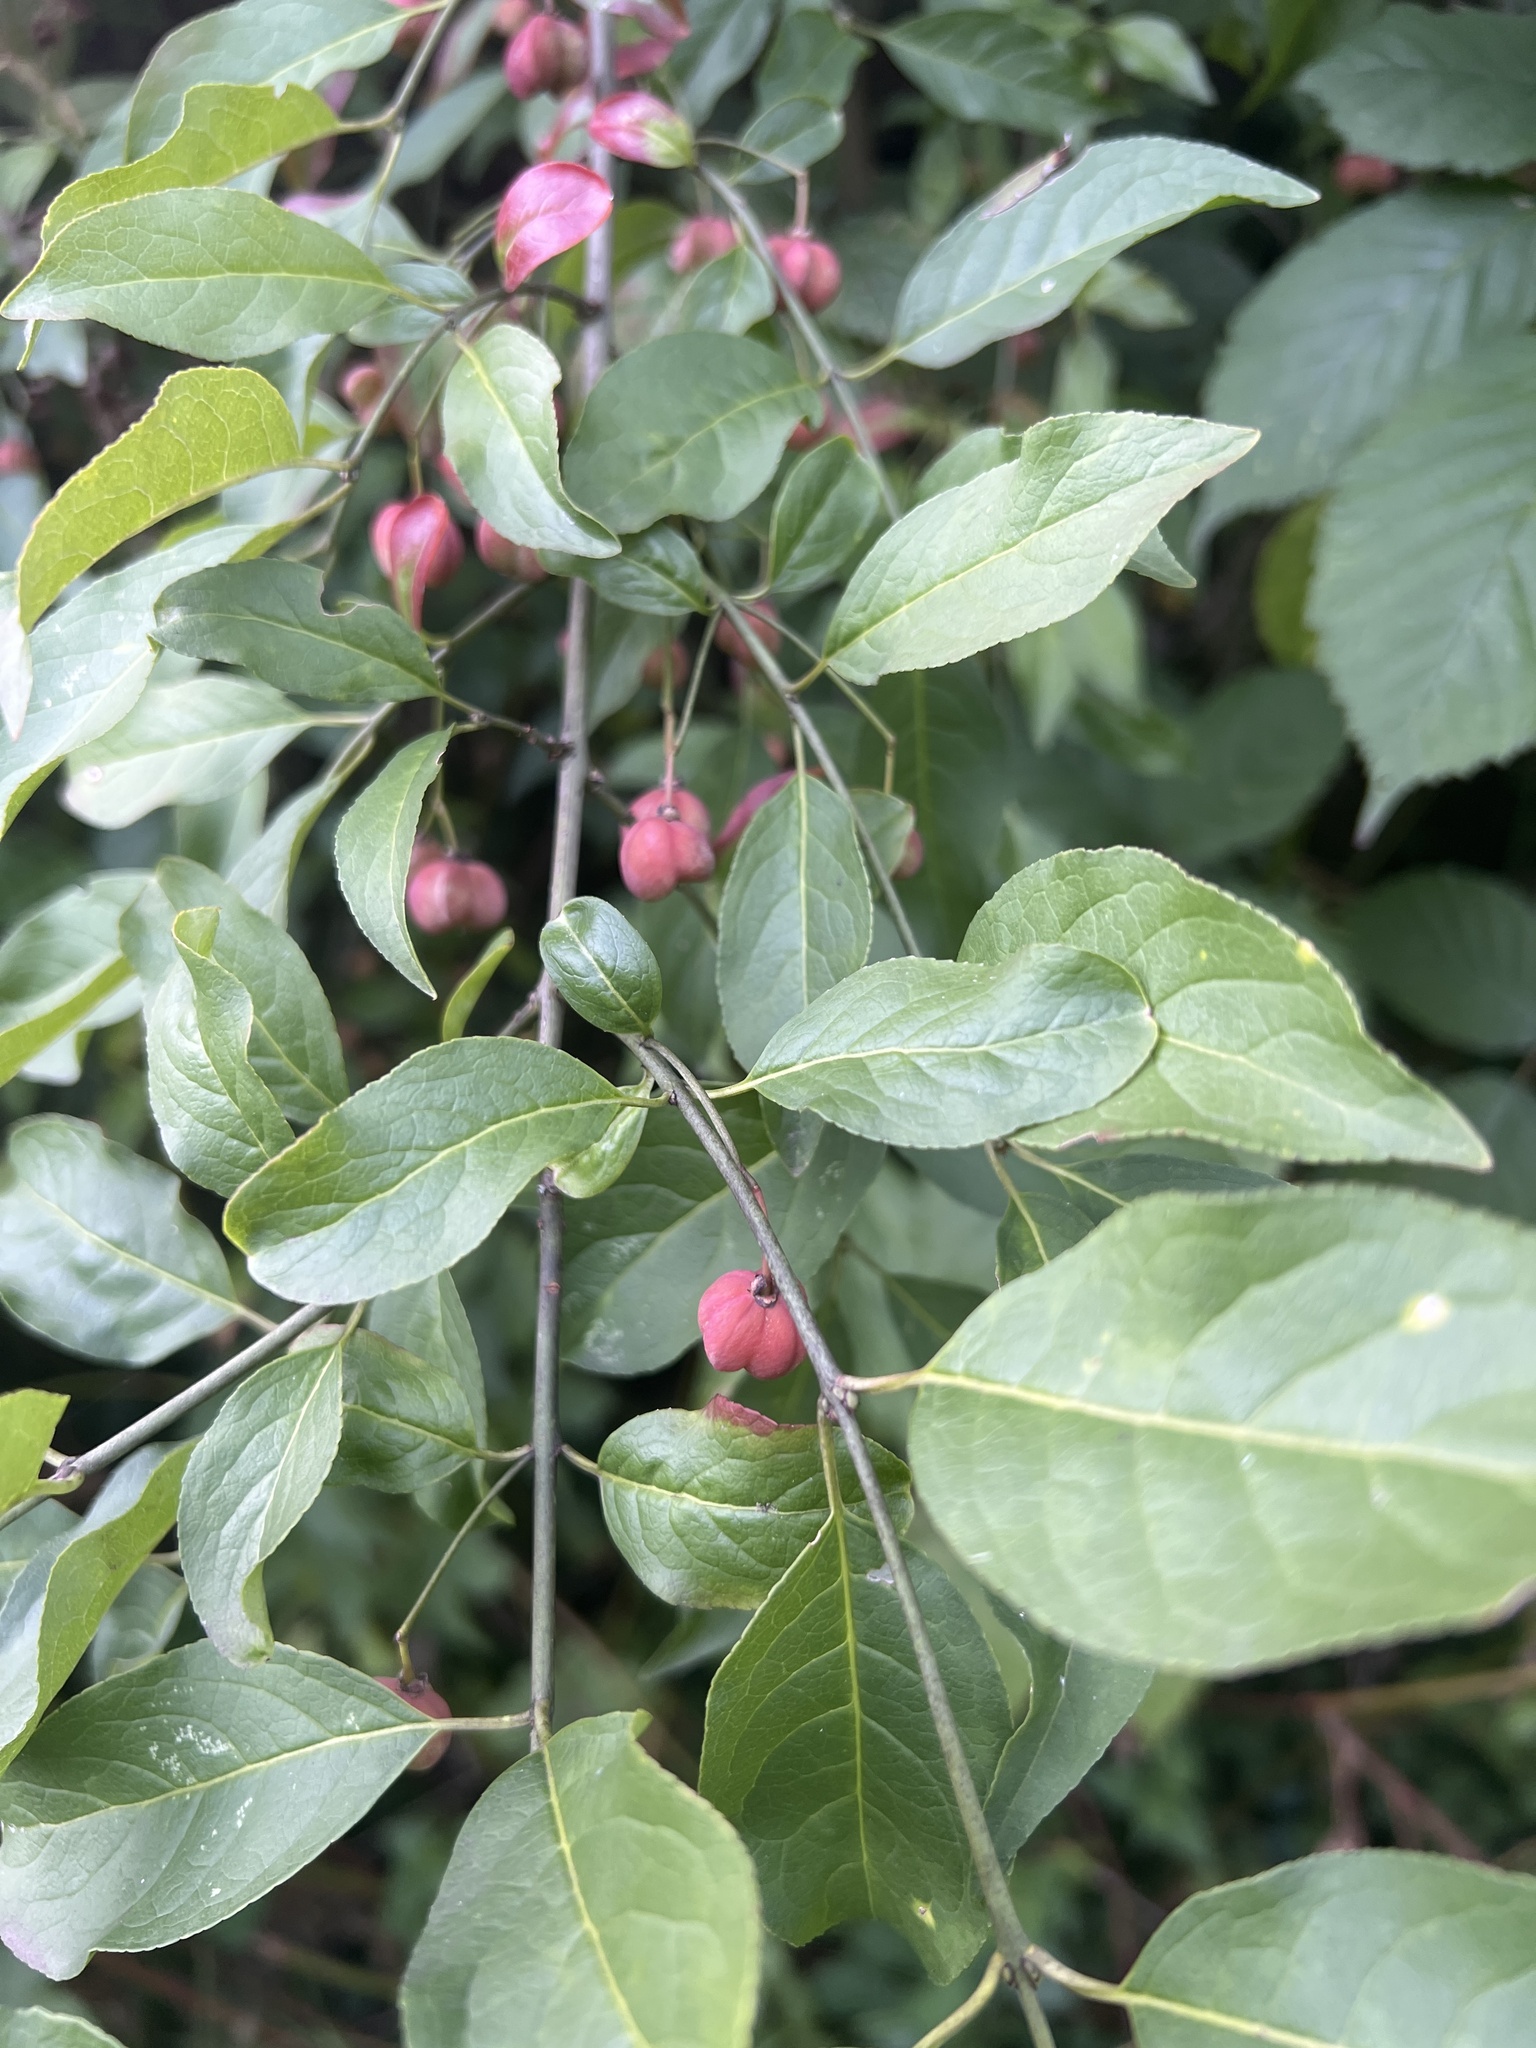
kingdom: Plantae
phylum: Tracheophyta
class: Magnoliopsida
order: Celastrales
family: Celastraceae
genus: Euonymus
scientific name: Euonymus europaeus
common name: Spindle
